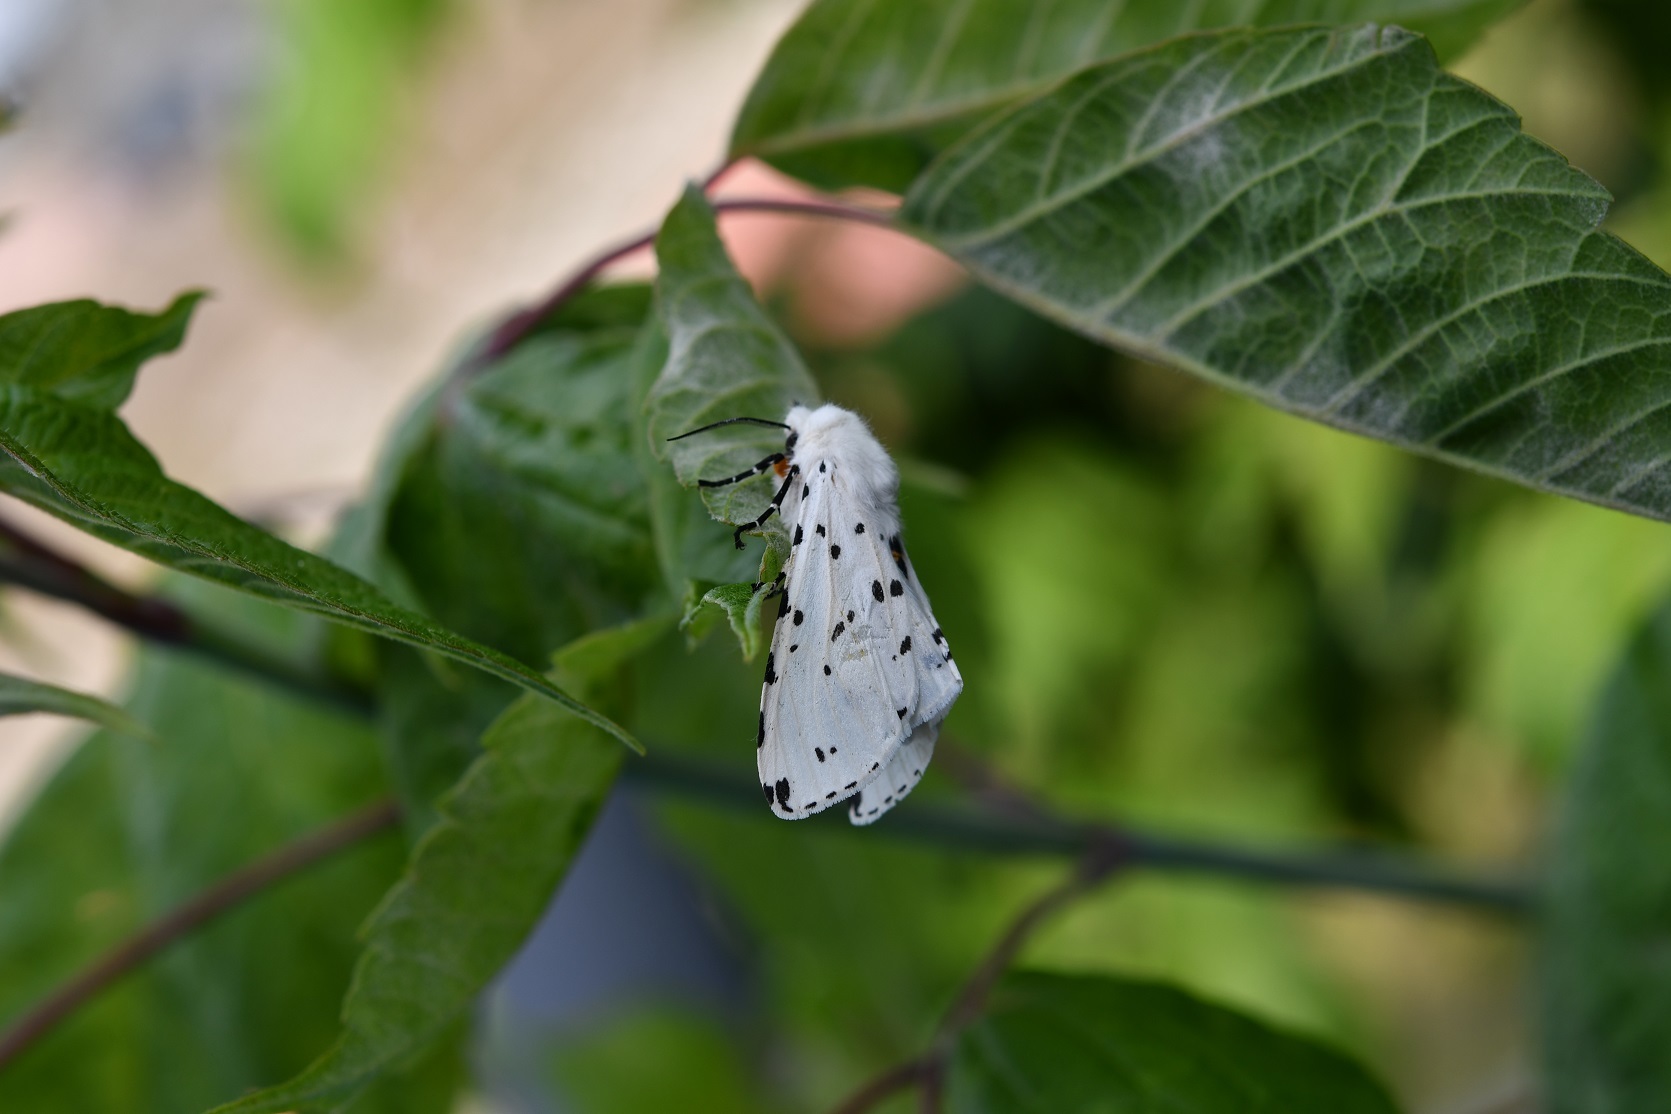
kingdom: Animalia
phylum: Arthropoda
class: Insecta
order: Lepidoptera
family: Erebidae
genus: Estigmene
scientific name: Estigmene acrea
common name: Salt marsh moth
